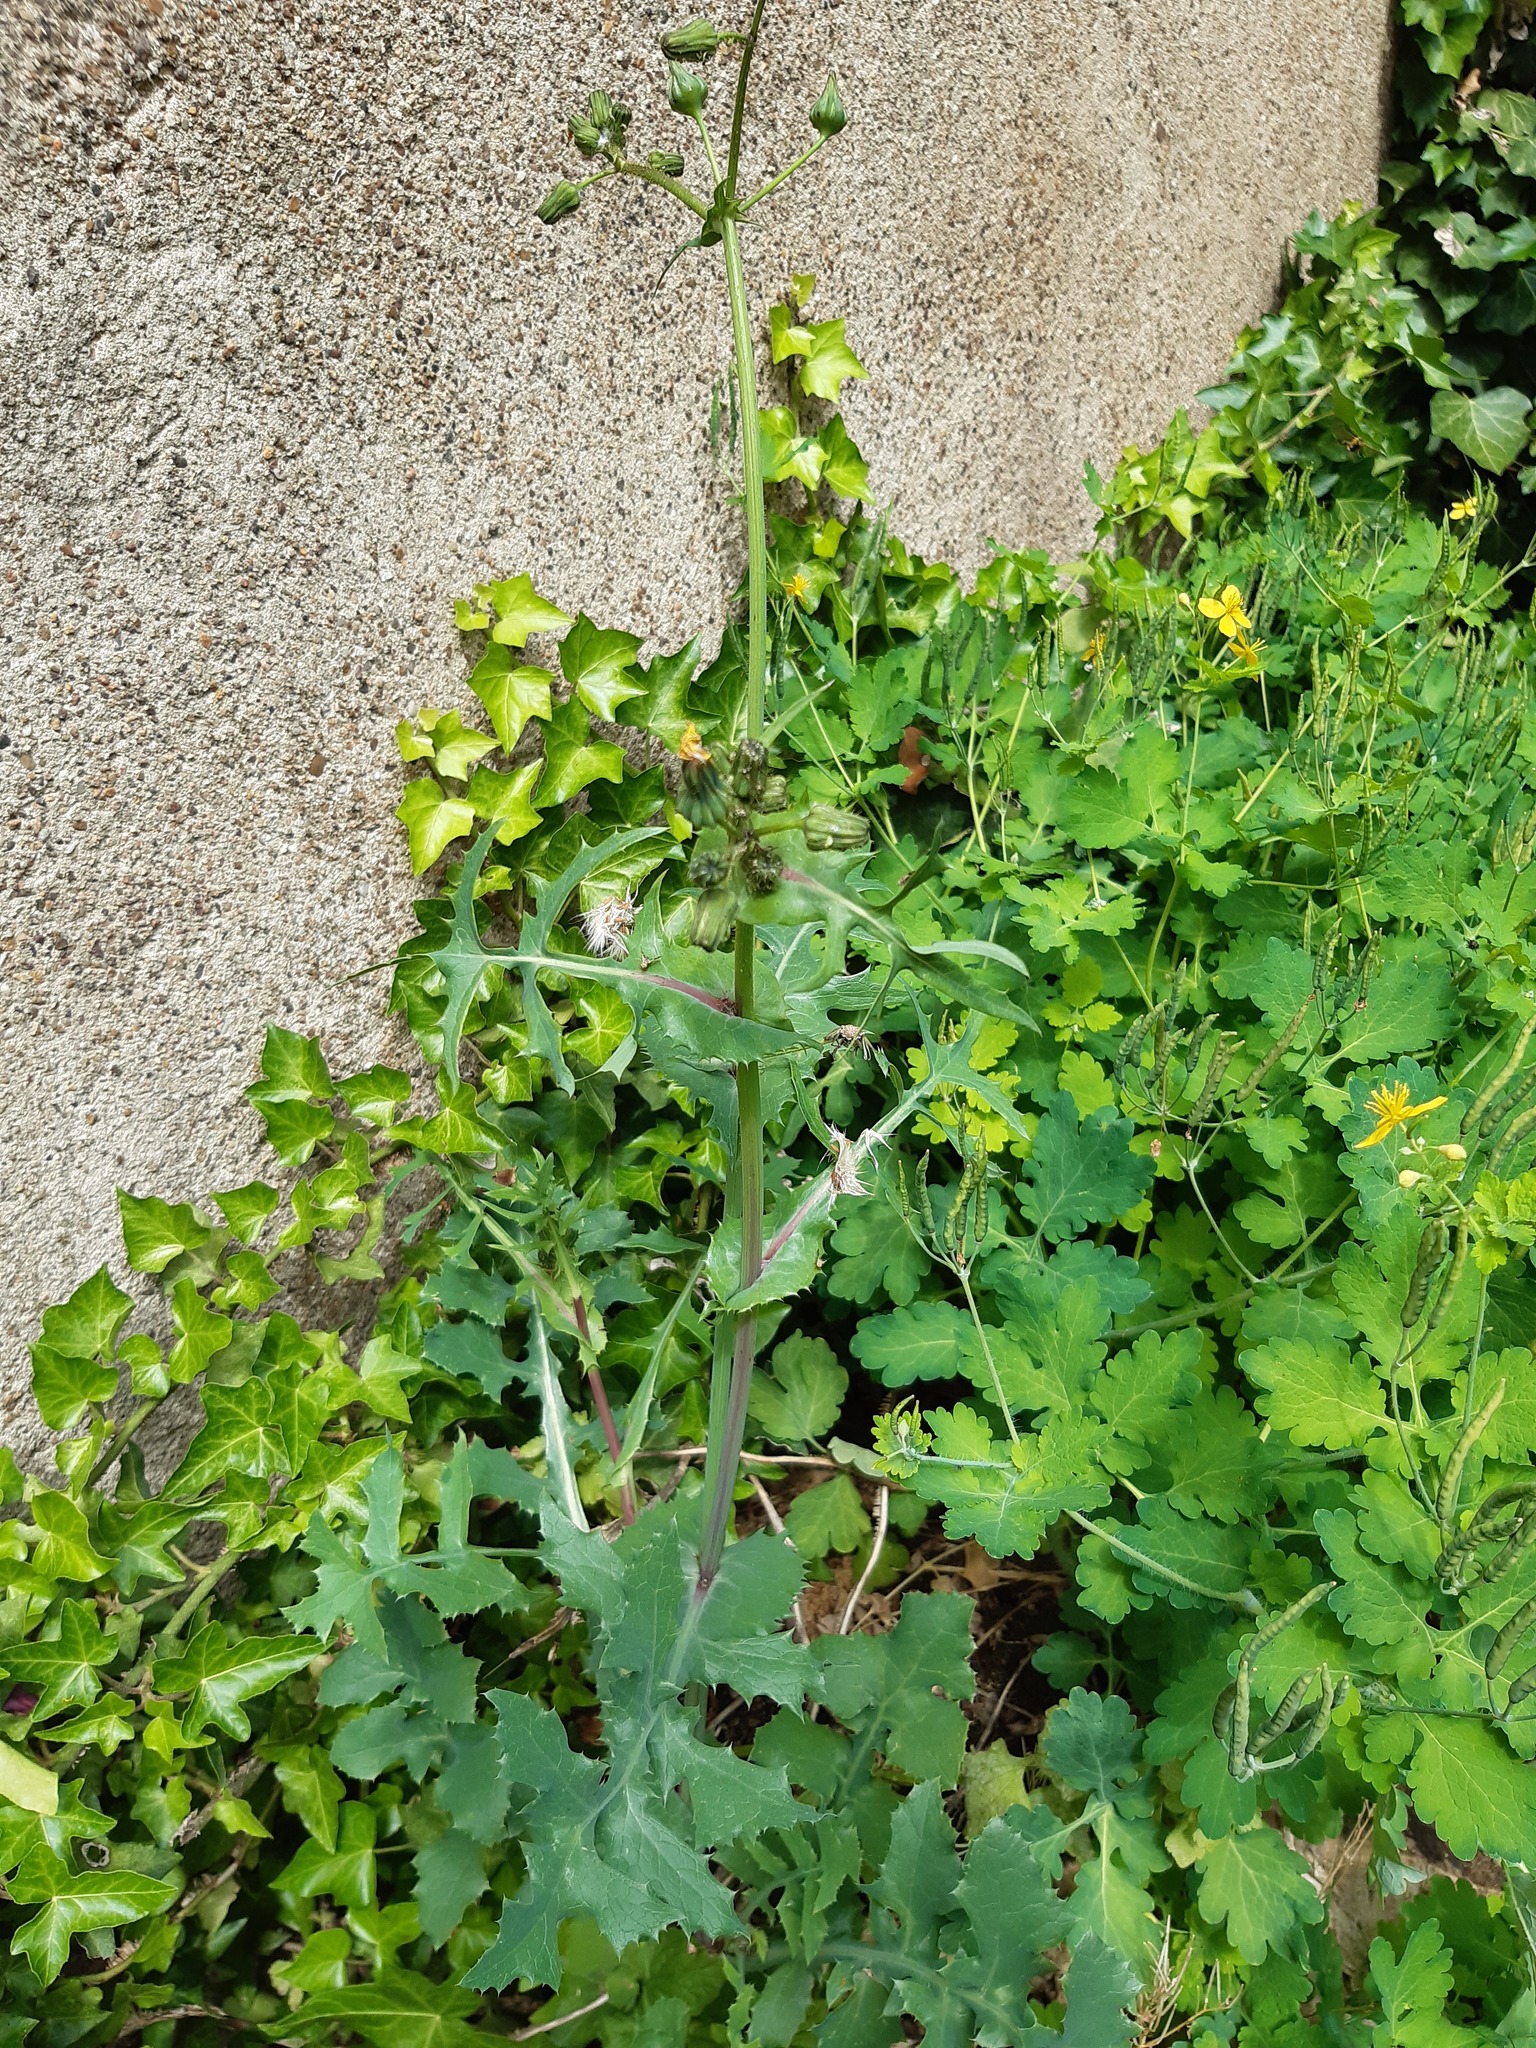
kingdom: Plantae
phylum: Tracheophyta
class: Magnoliopsida
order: Asterales
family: Asteraceae
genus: Sonchus
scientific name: Sonchus oleraceus
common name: Common sowthistle
